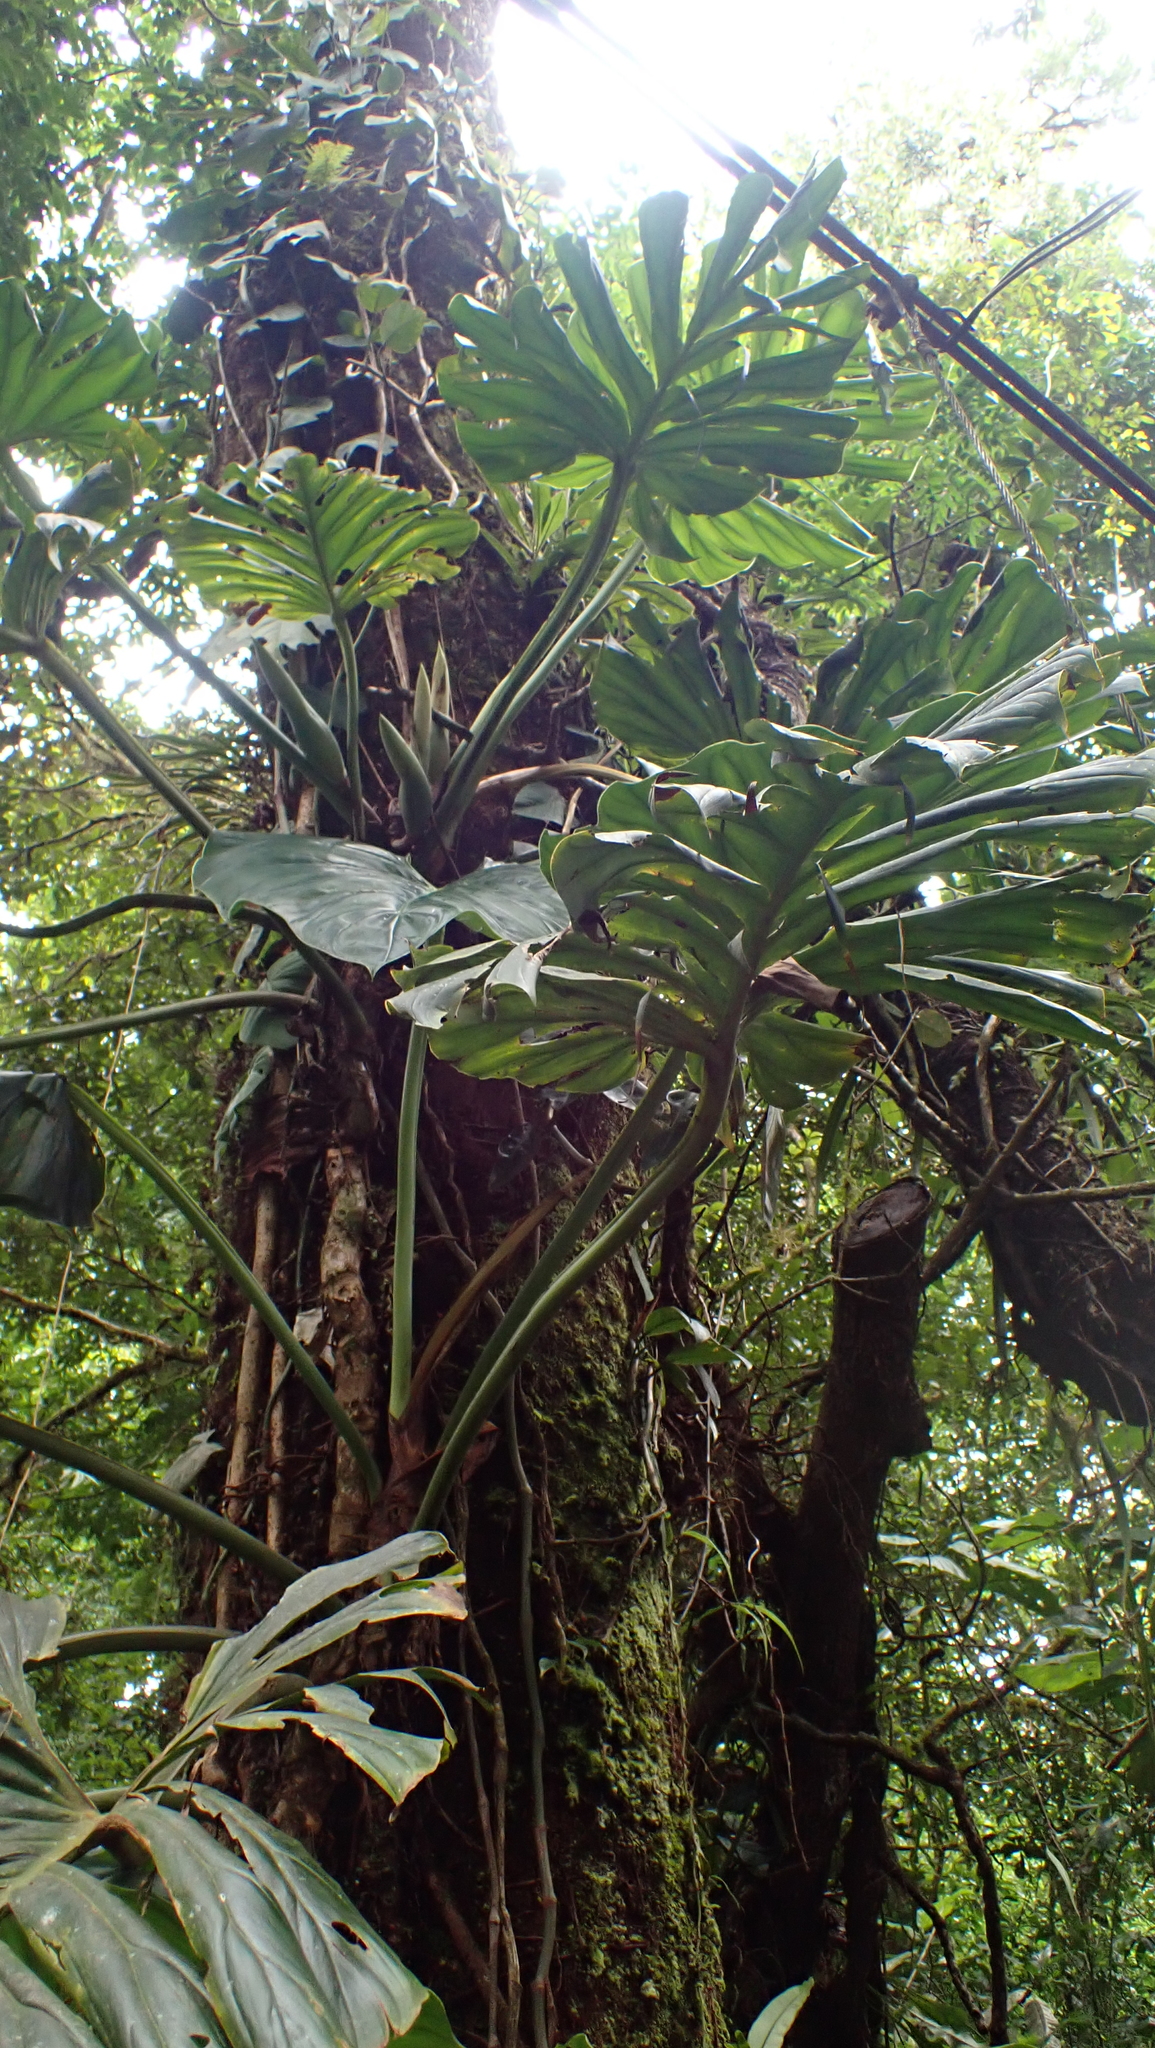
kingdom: Plantae
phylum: Tracheophyta
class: Liliopsida
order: Alismatales
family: Araceae
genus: Philodendron
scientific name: Philodendron findens
